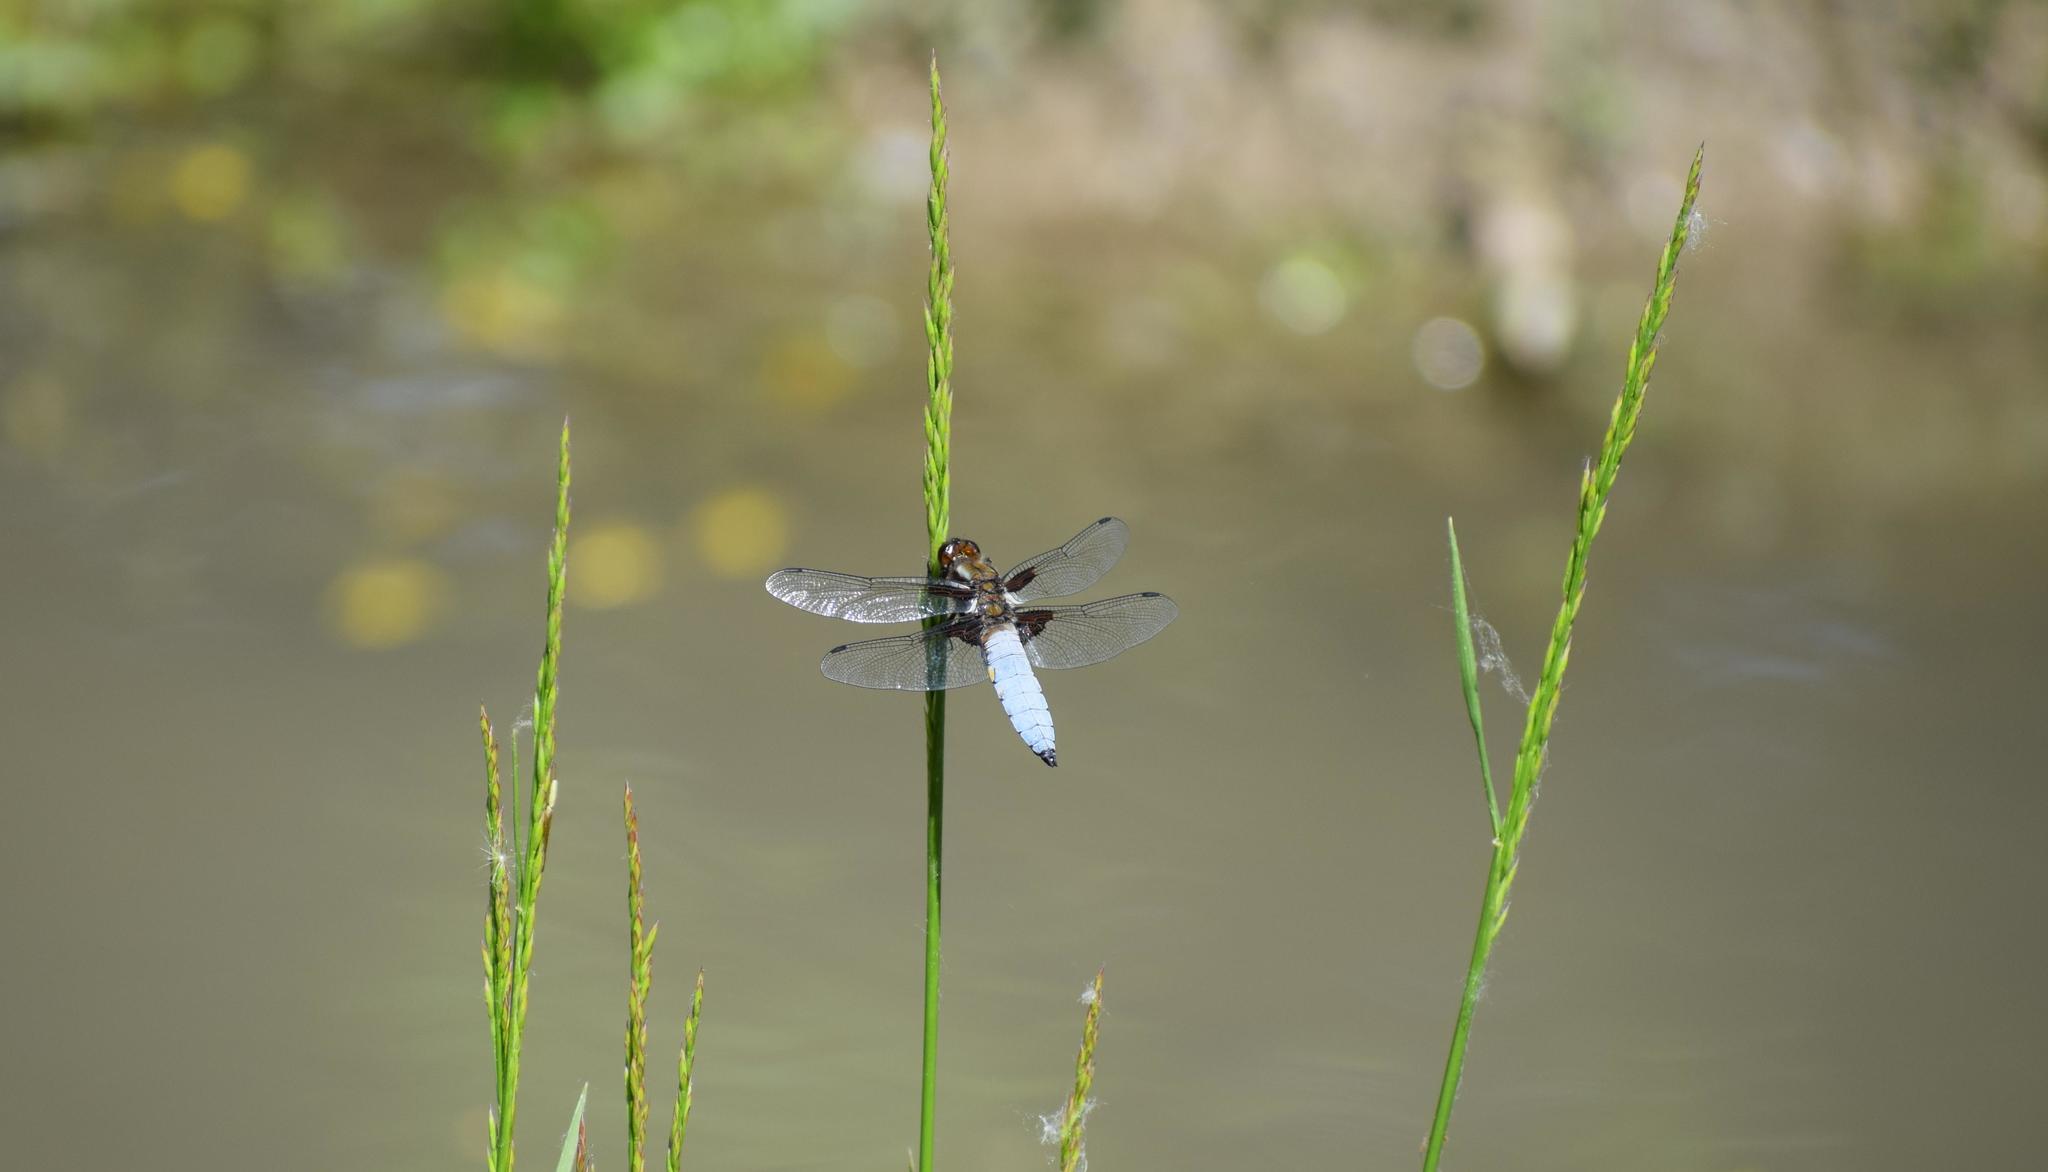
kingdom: Animalia
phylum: Arthropoda
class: Insecta
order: Odonata
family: Libellulidae
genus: Libellula
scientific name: Libellula depressa
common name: Broad-bodied chaser
